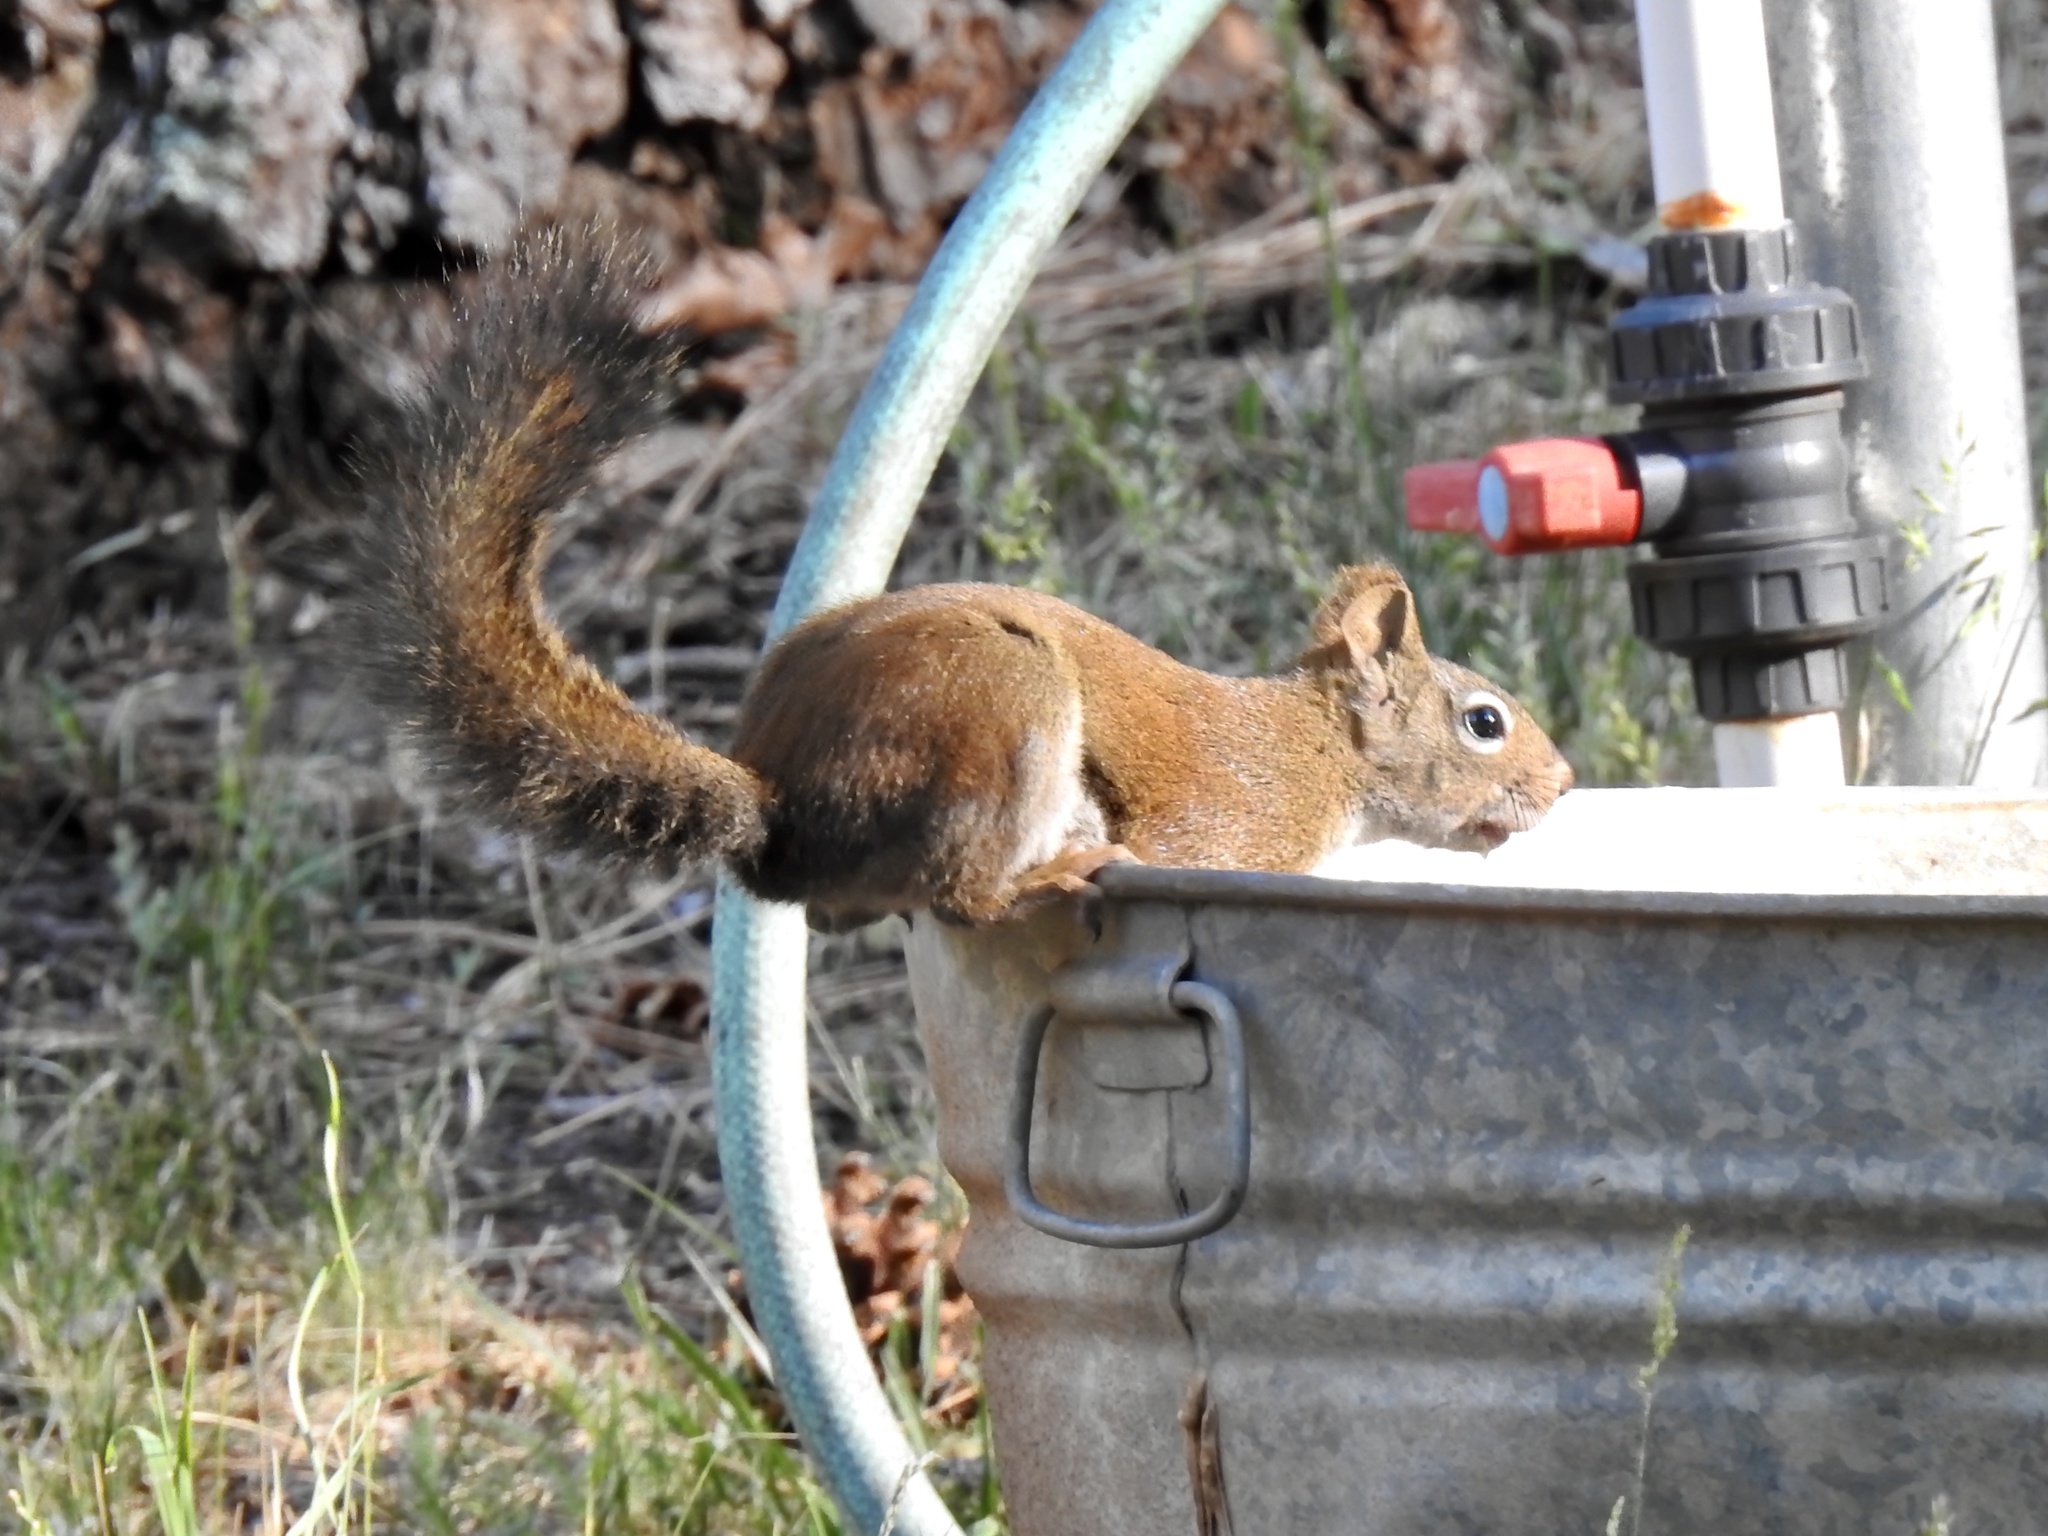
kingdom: Animalia
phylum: Chordata
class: Mammalia
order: Rodentia
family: Sciuridae
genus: Tamiasciurus
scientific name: Tamiasciurus hudsonicus
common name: Red squirrel
